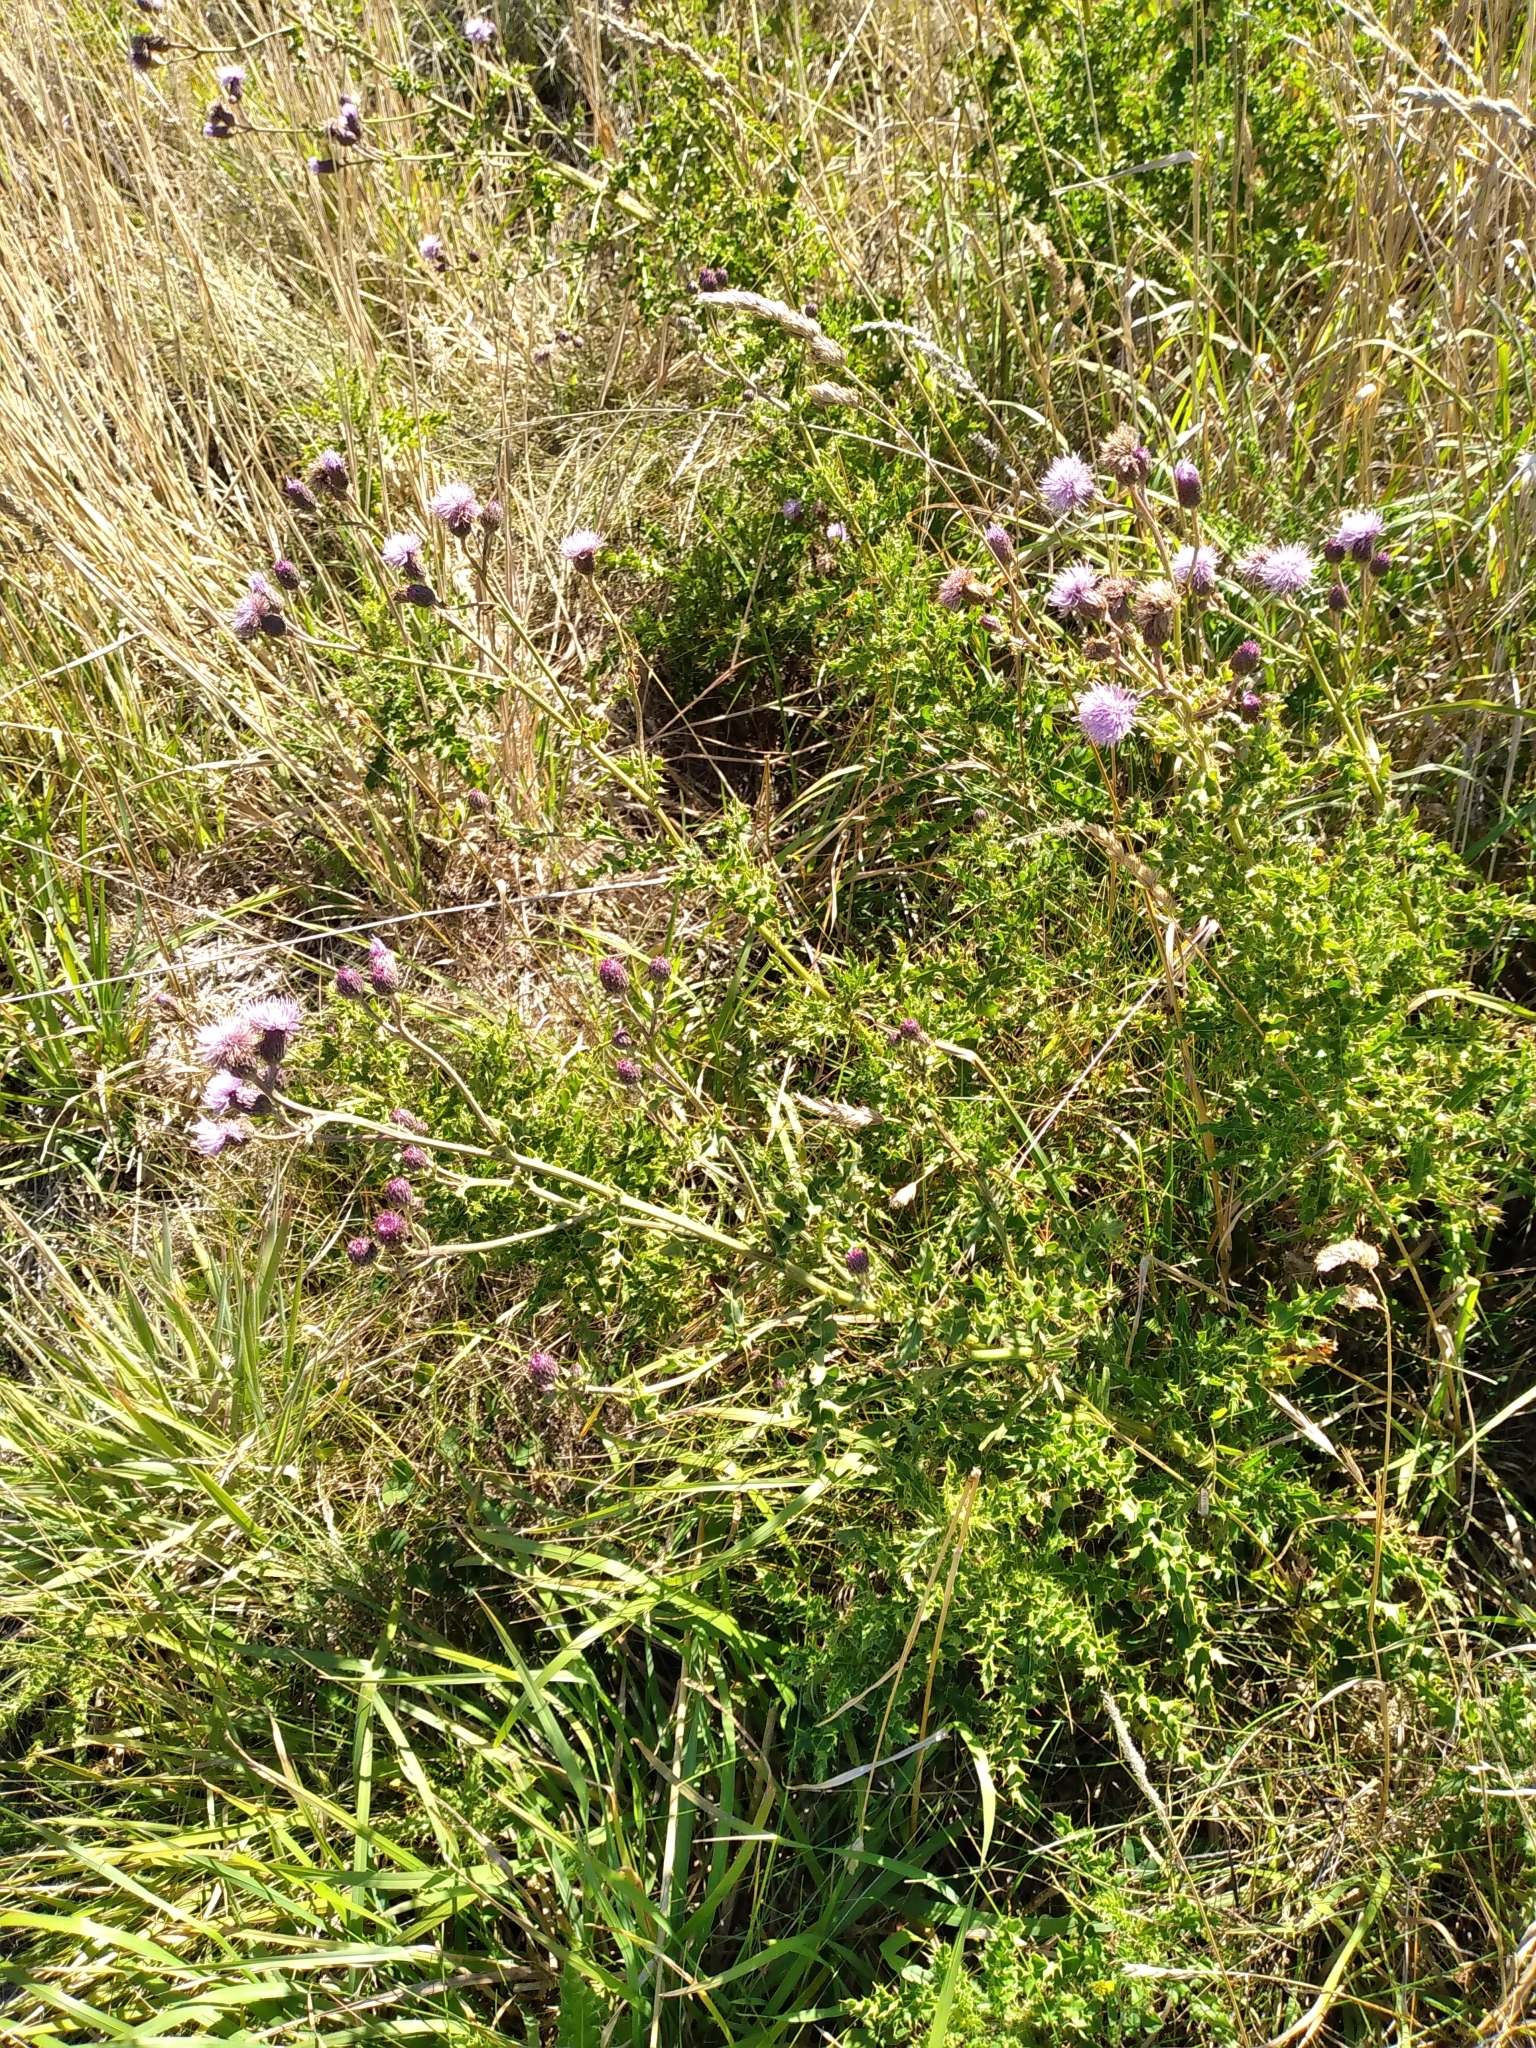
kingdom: Plantae
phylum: Tracheophyta
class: Magnoliopsida
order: Asterales
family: Asteraceae
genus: Cirsium
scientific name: Cirsium arvense
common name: Creeping thistle
